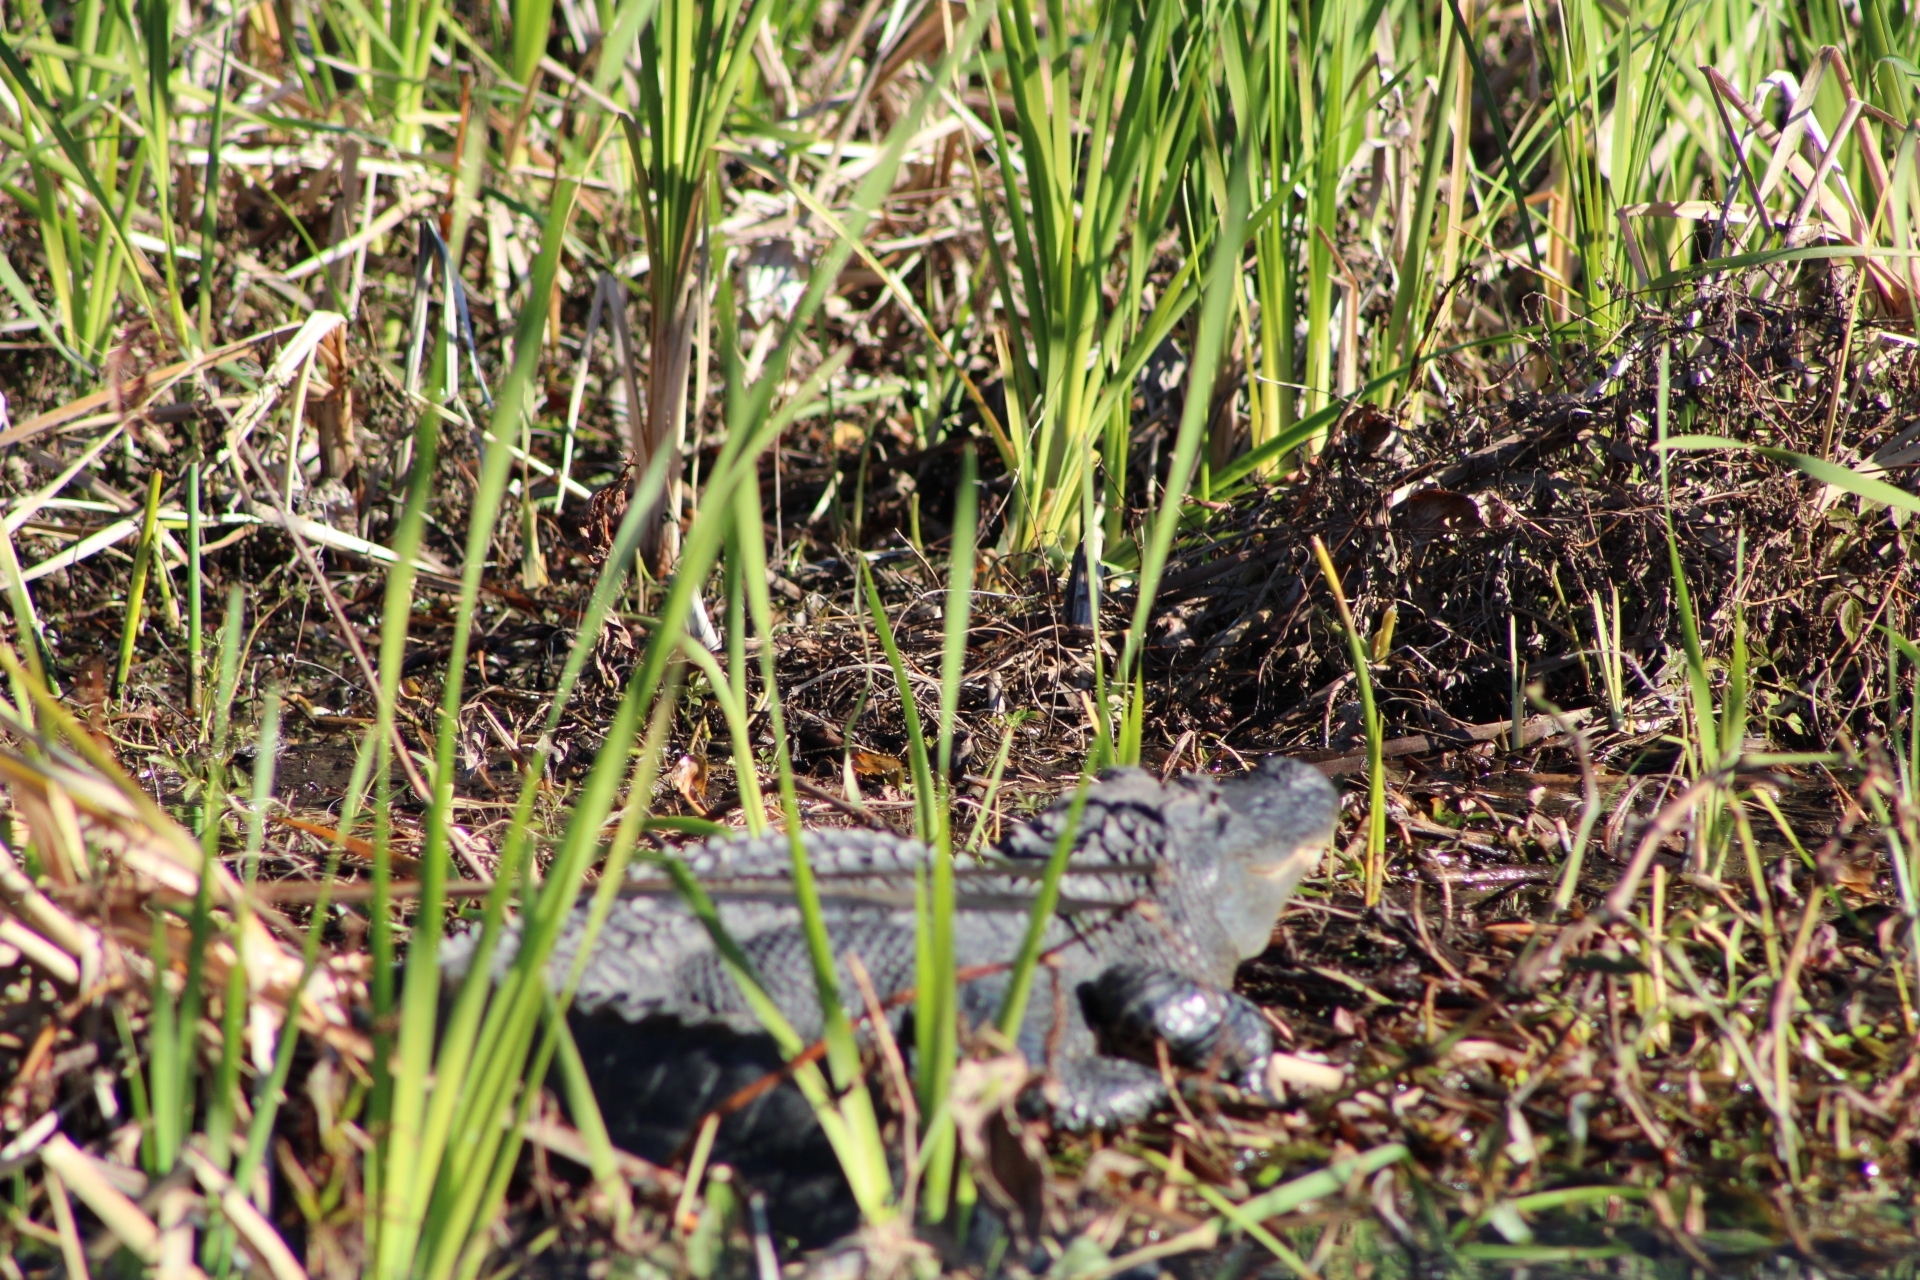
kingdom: Animalia
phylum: Chordata
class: Crocodylia
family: Alligatoridae
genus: Alligator
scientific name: Alligator mississippiensis
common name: American alligator
